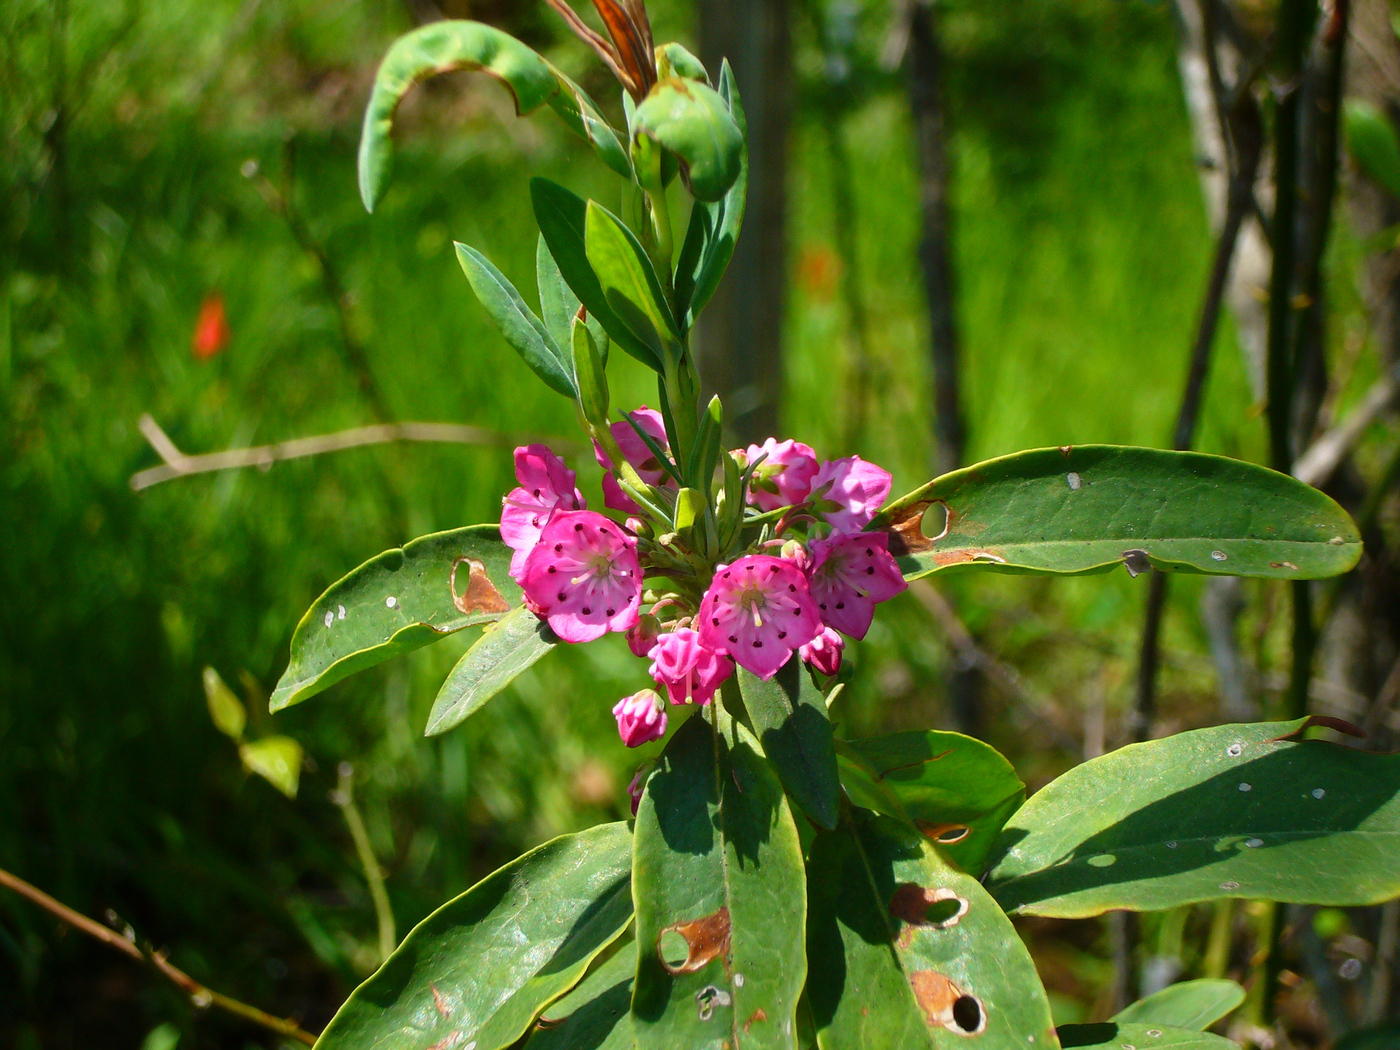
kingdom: Plantae
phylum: Tracheophyta
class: Magnoliopsida
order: Ericales
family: Ericaceae
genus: Kalmia
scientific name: Kalmia angustifolia
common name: Sheep-laurel
